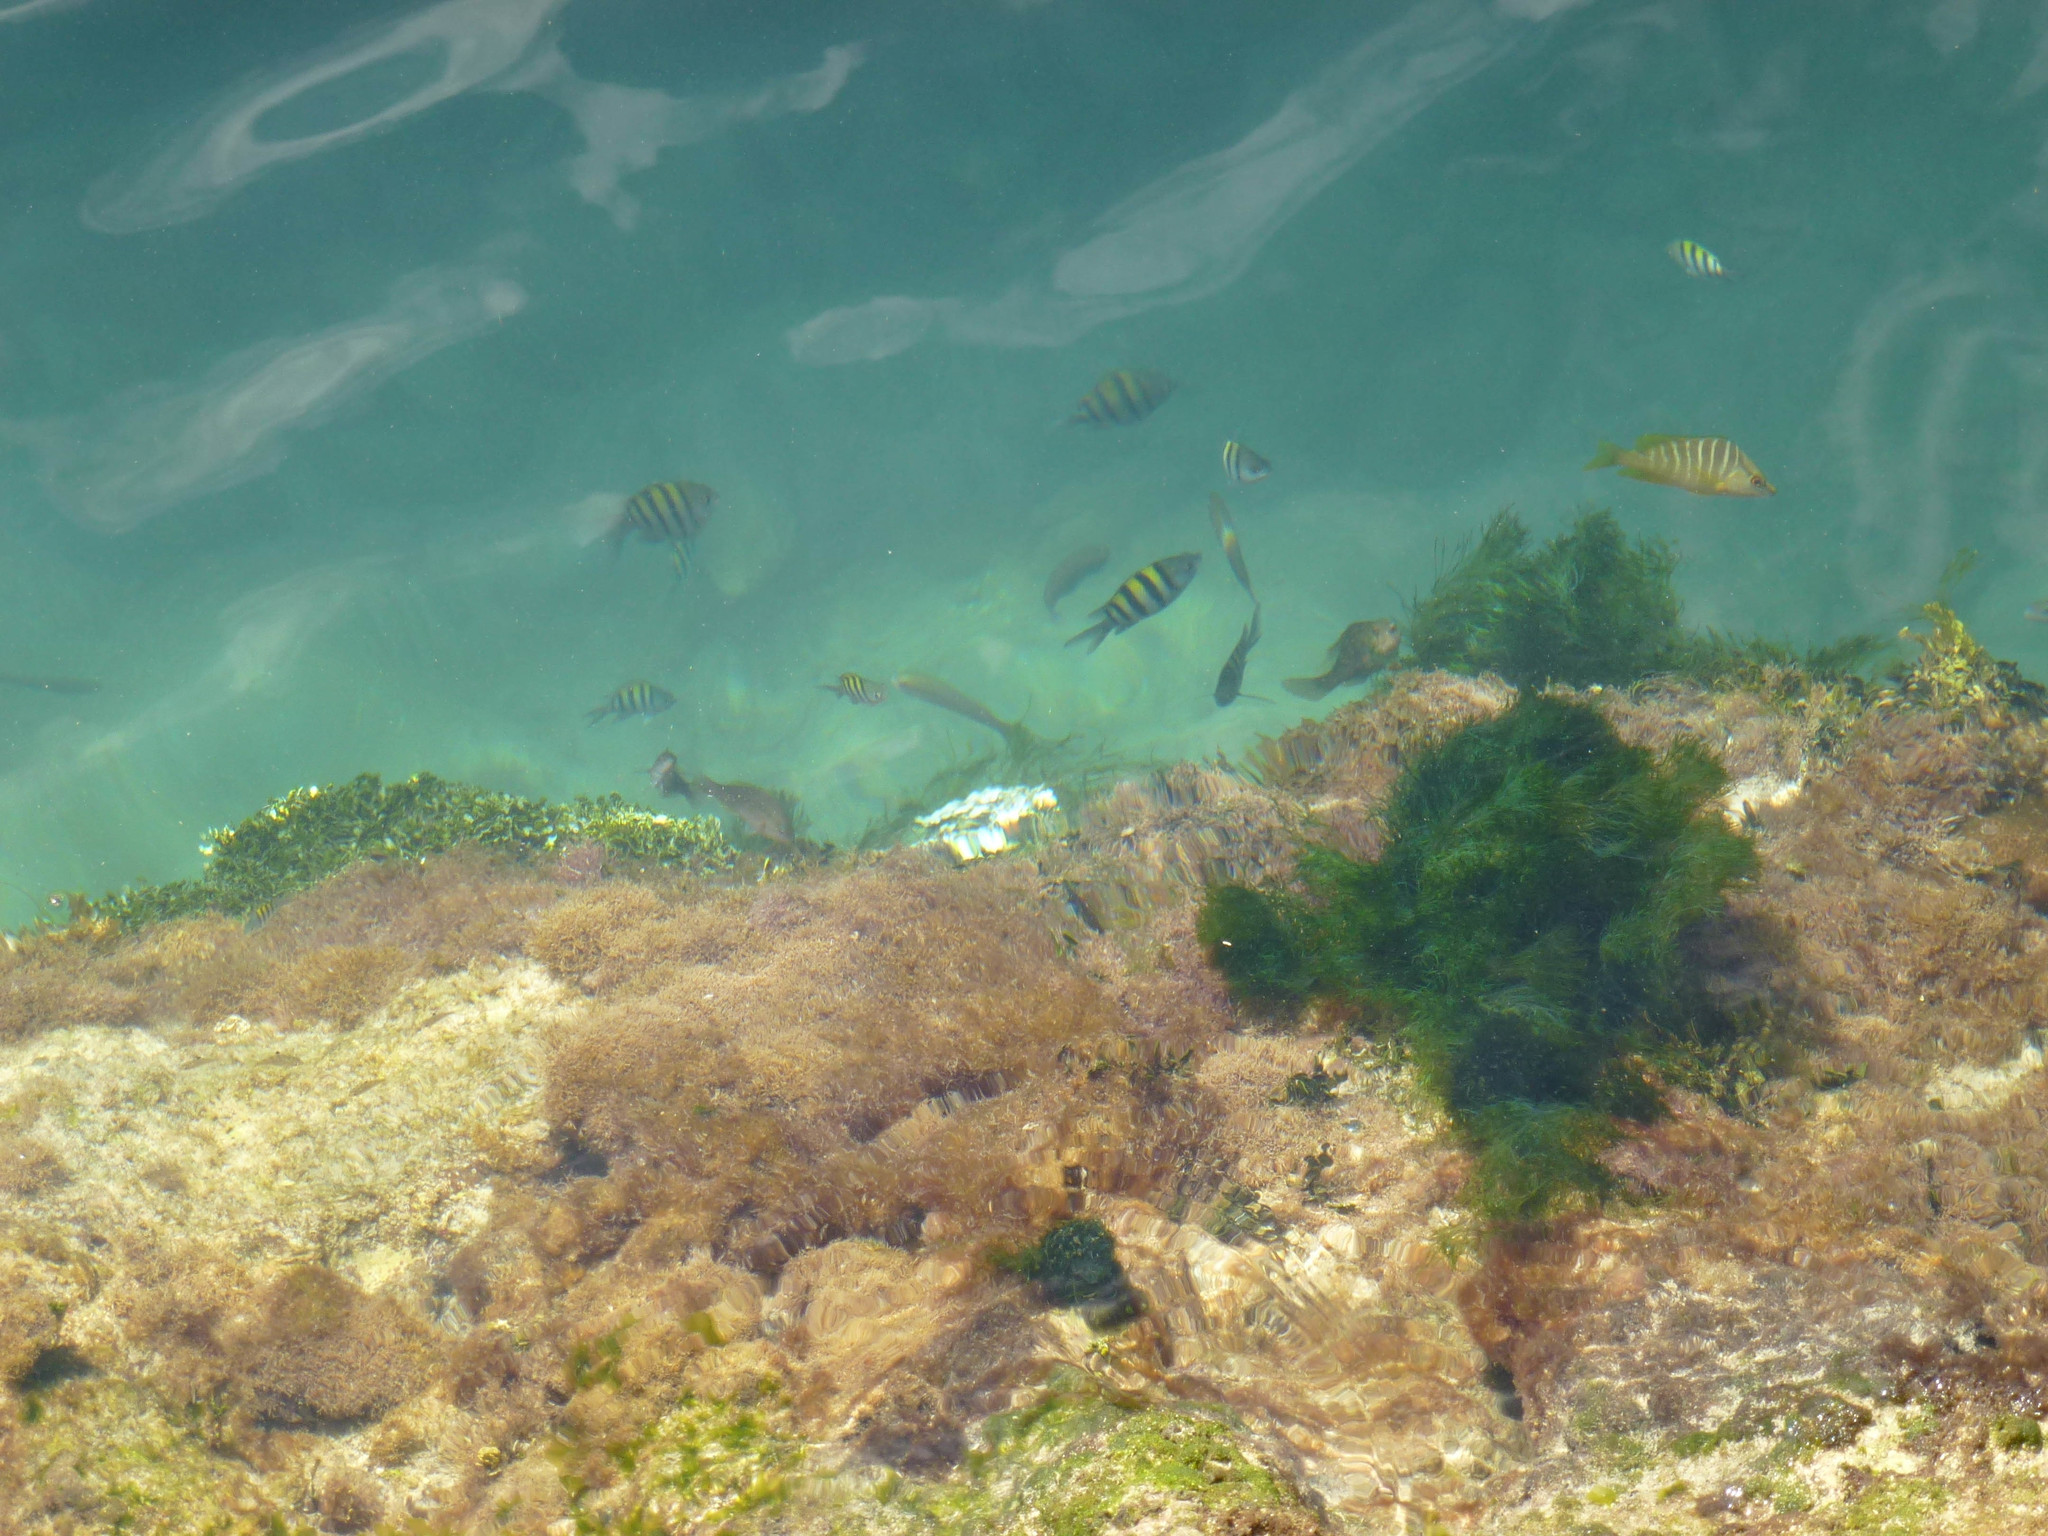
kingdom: Animalia
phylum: Chordata
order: Perciformes
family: Lutjanidae
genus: Lutjanus
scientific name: Lutjanus apodus
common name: Schoolmaster
